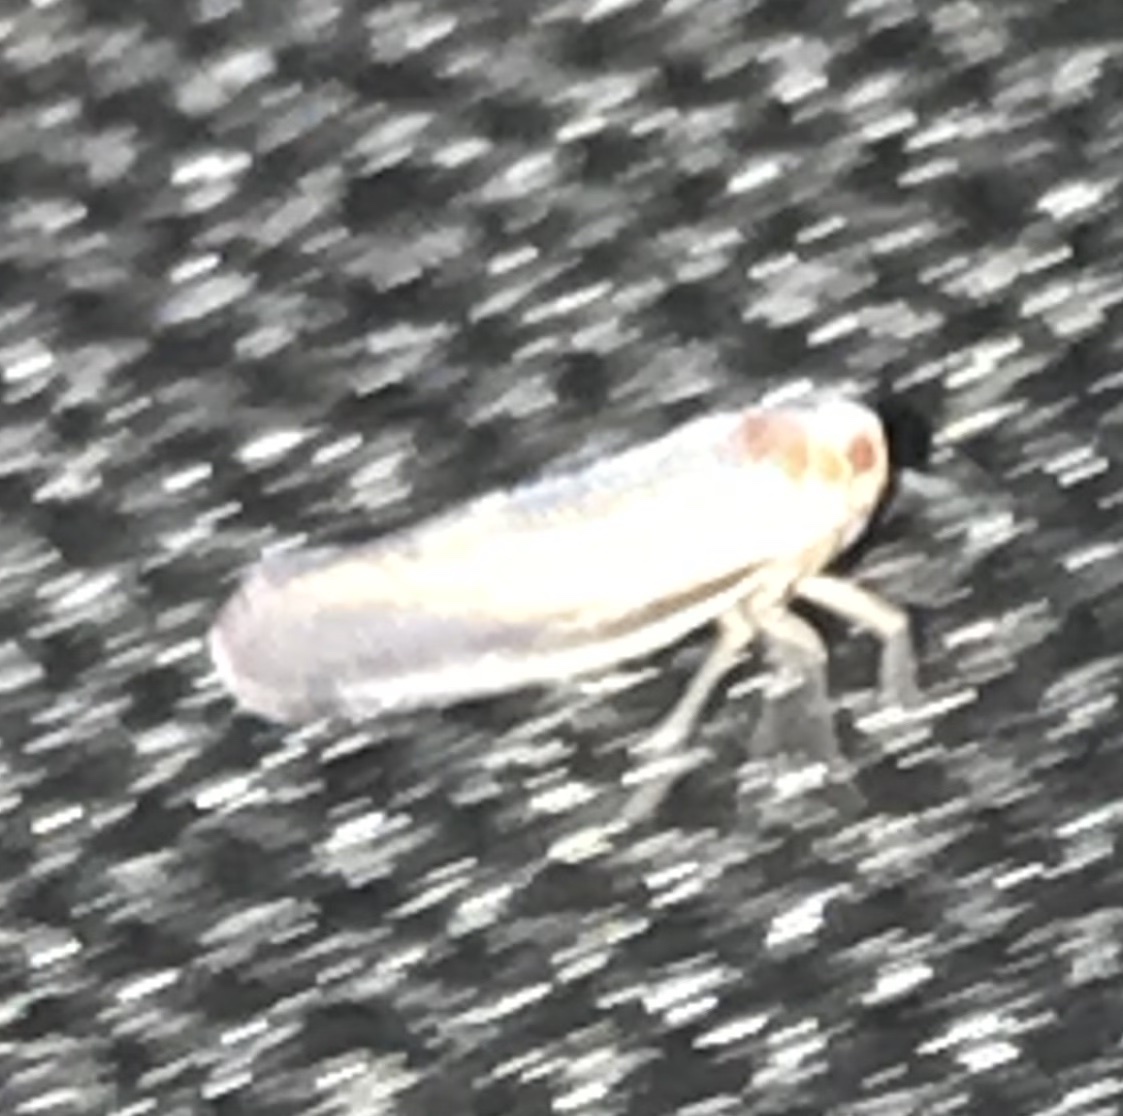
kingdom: Animalia
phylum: Arthropoda
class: Insecta
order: Hemiptera
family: Derbidae
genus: Omolicna
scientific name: Omolicna uhleri
